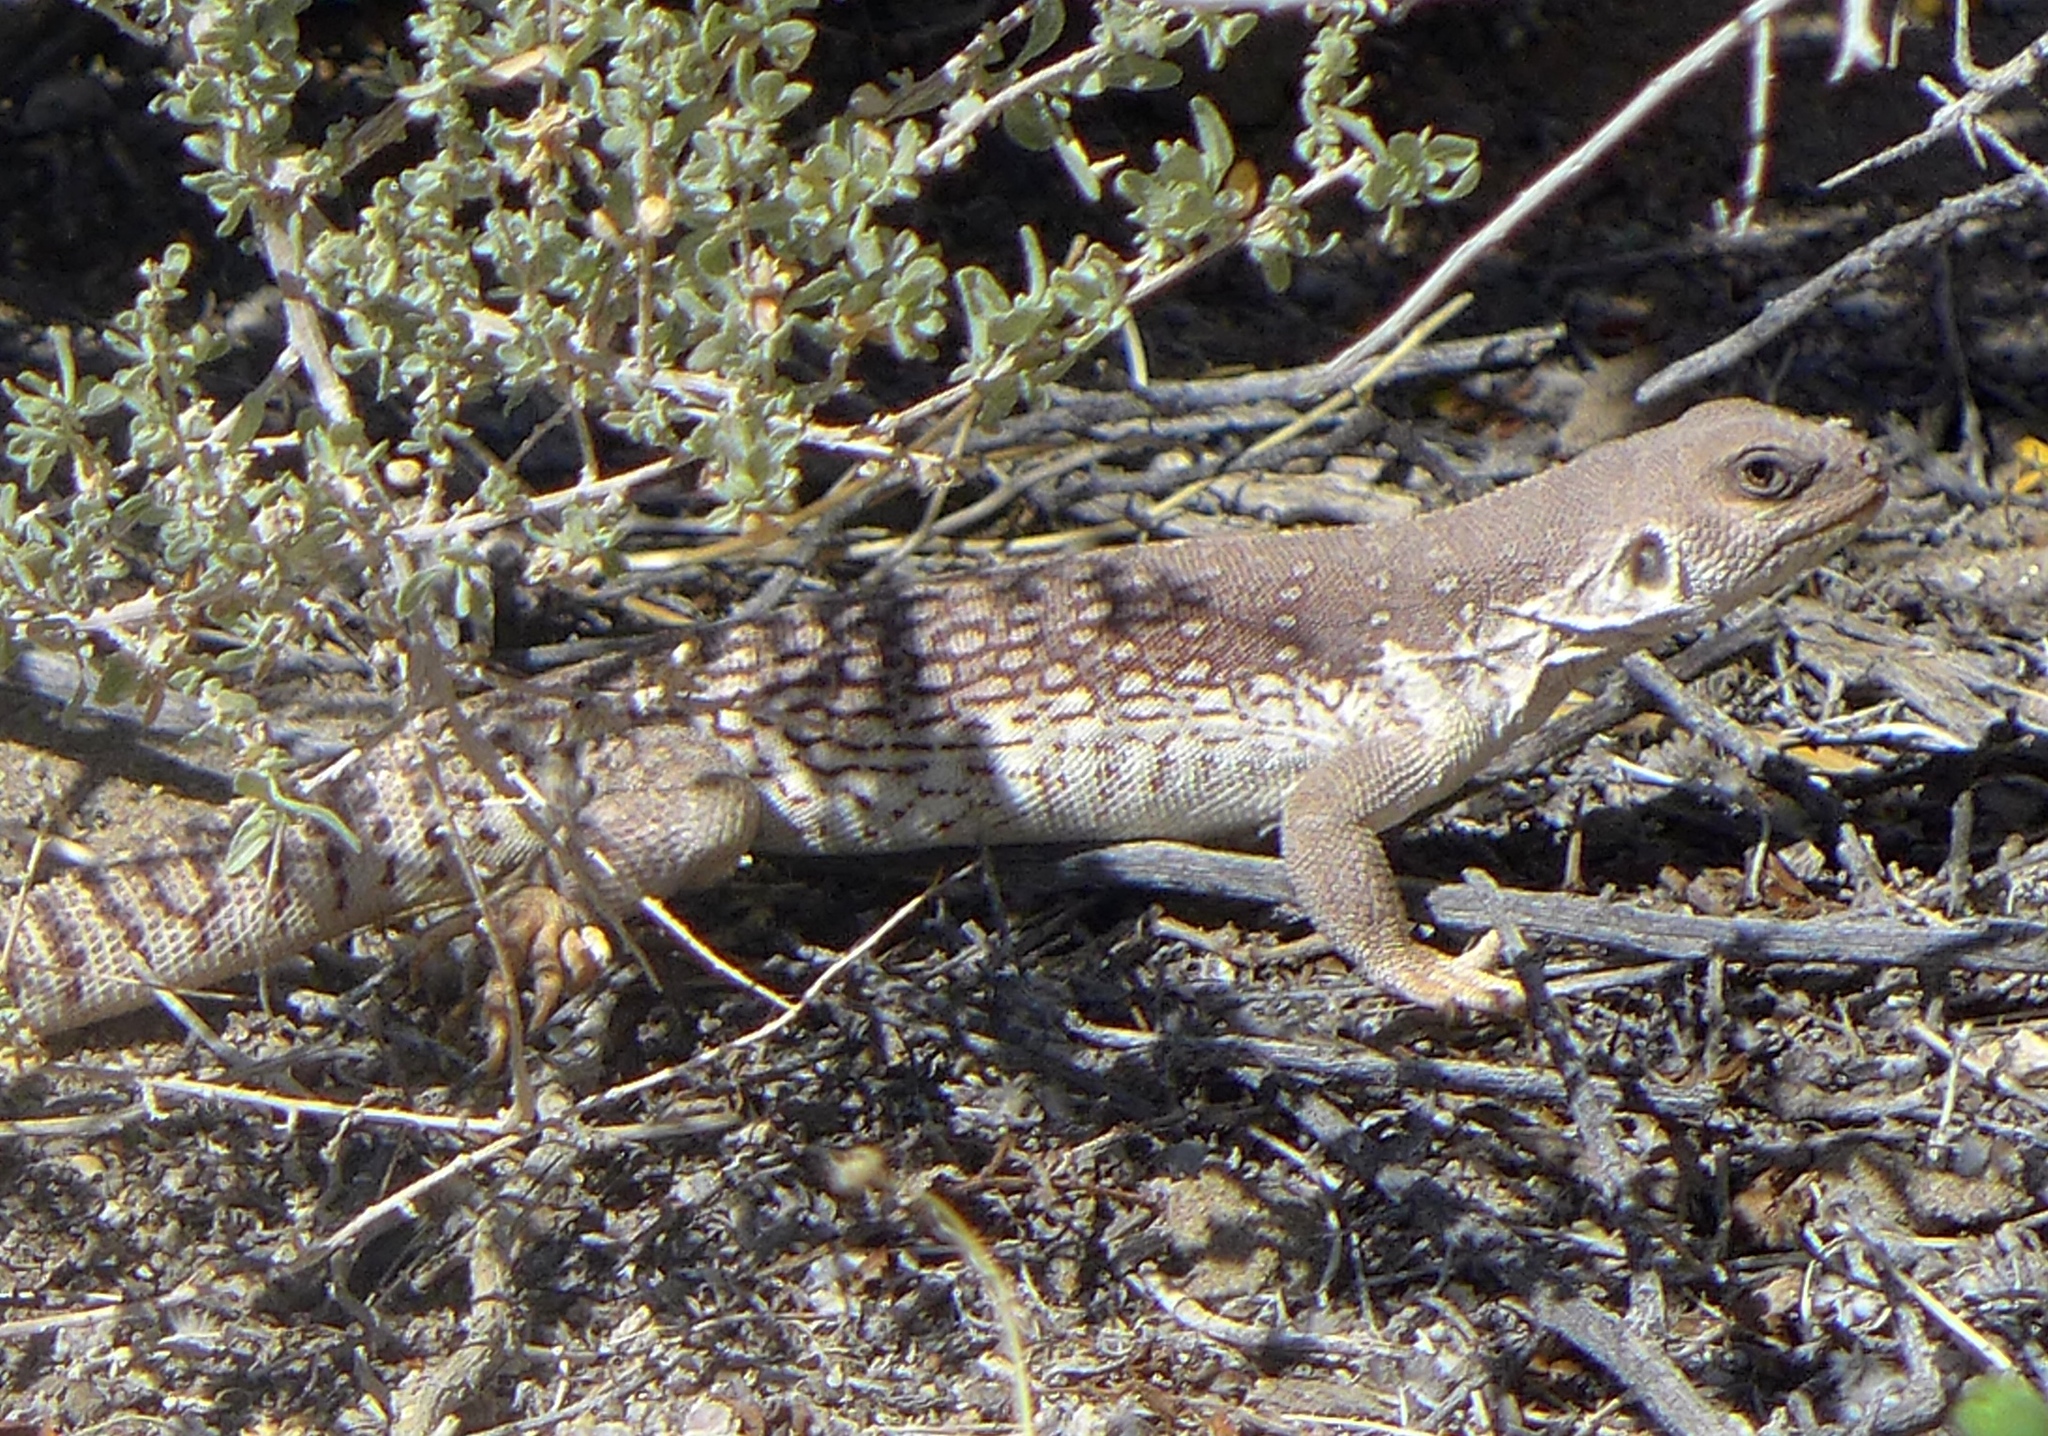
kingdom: Animalia
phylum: Chordata
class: Squamata
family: Iguanidae
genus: Dipsosaurus
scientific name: Dipsosaurus dorsalis
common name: Desert iguana
